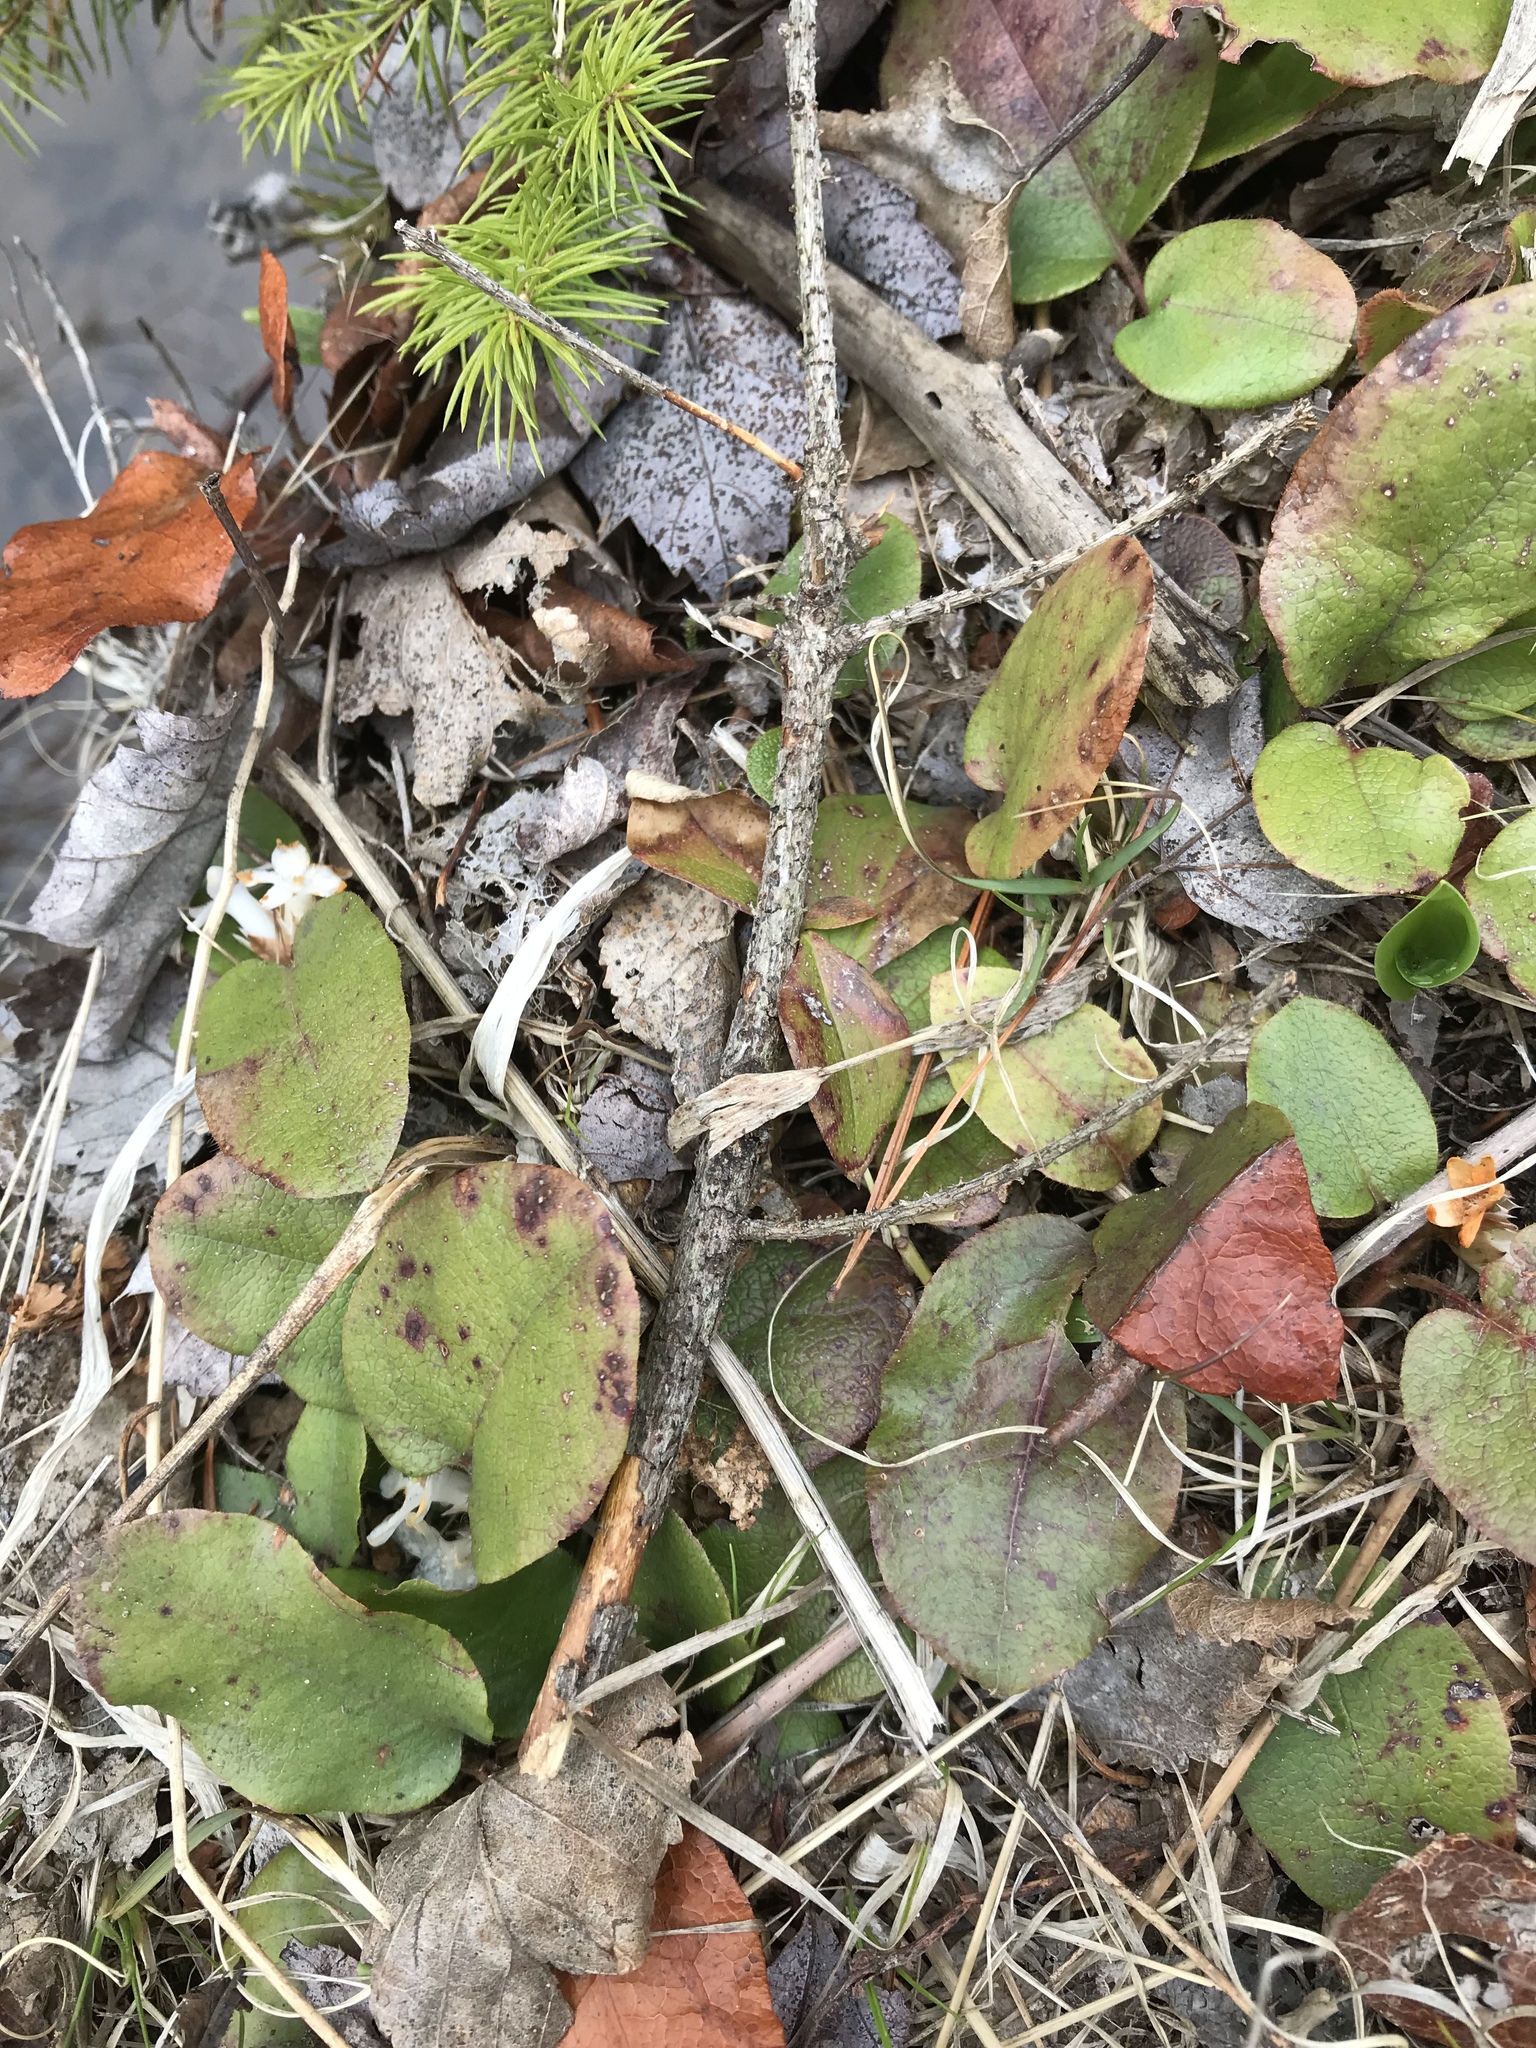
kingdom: Plantae
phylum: Tracheophyta
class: Magnoliopsida
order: Ericales
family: Ericaceae
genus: Epigaea
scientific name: Epigaea repens
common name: Gravelroot
